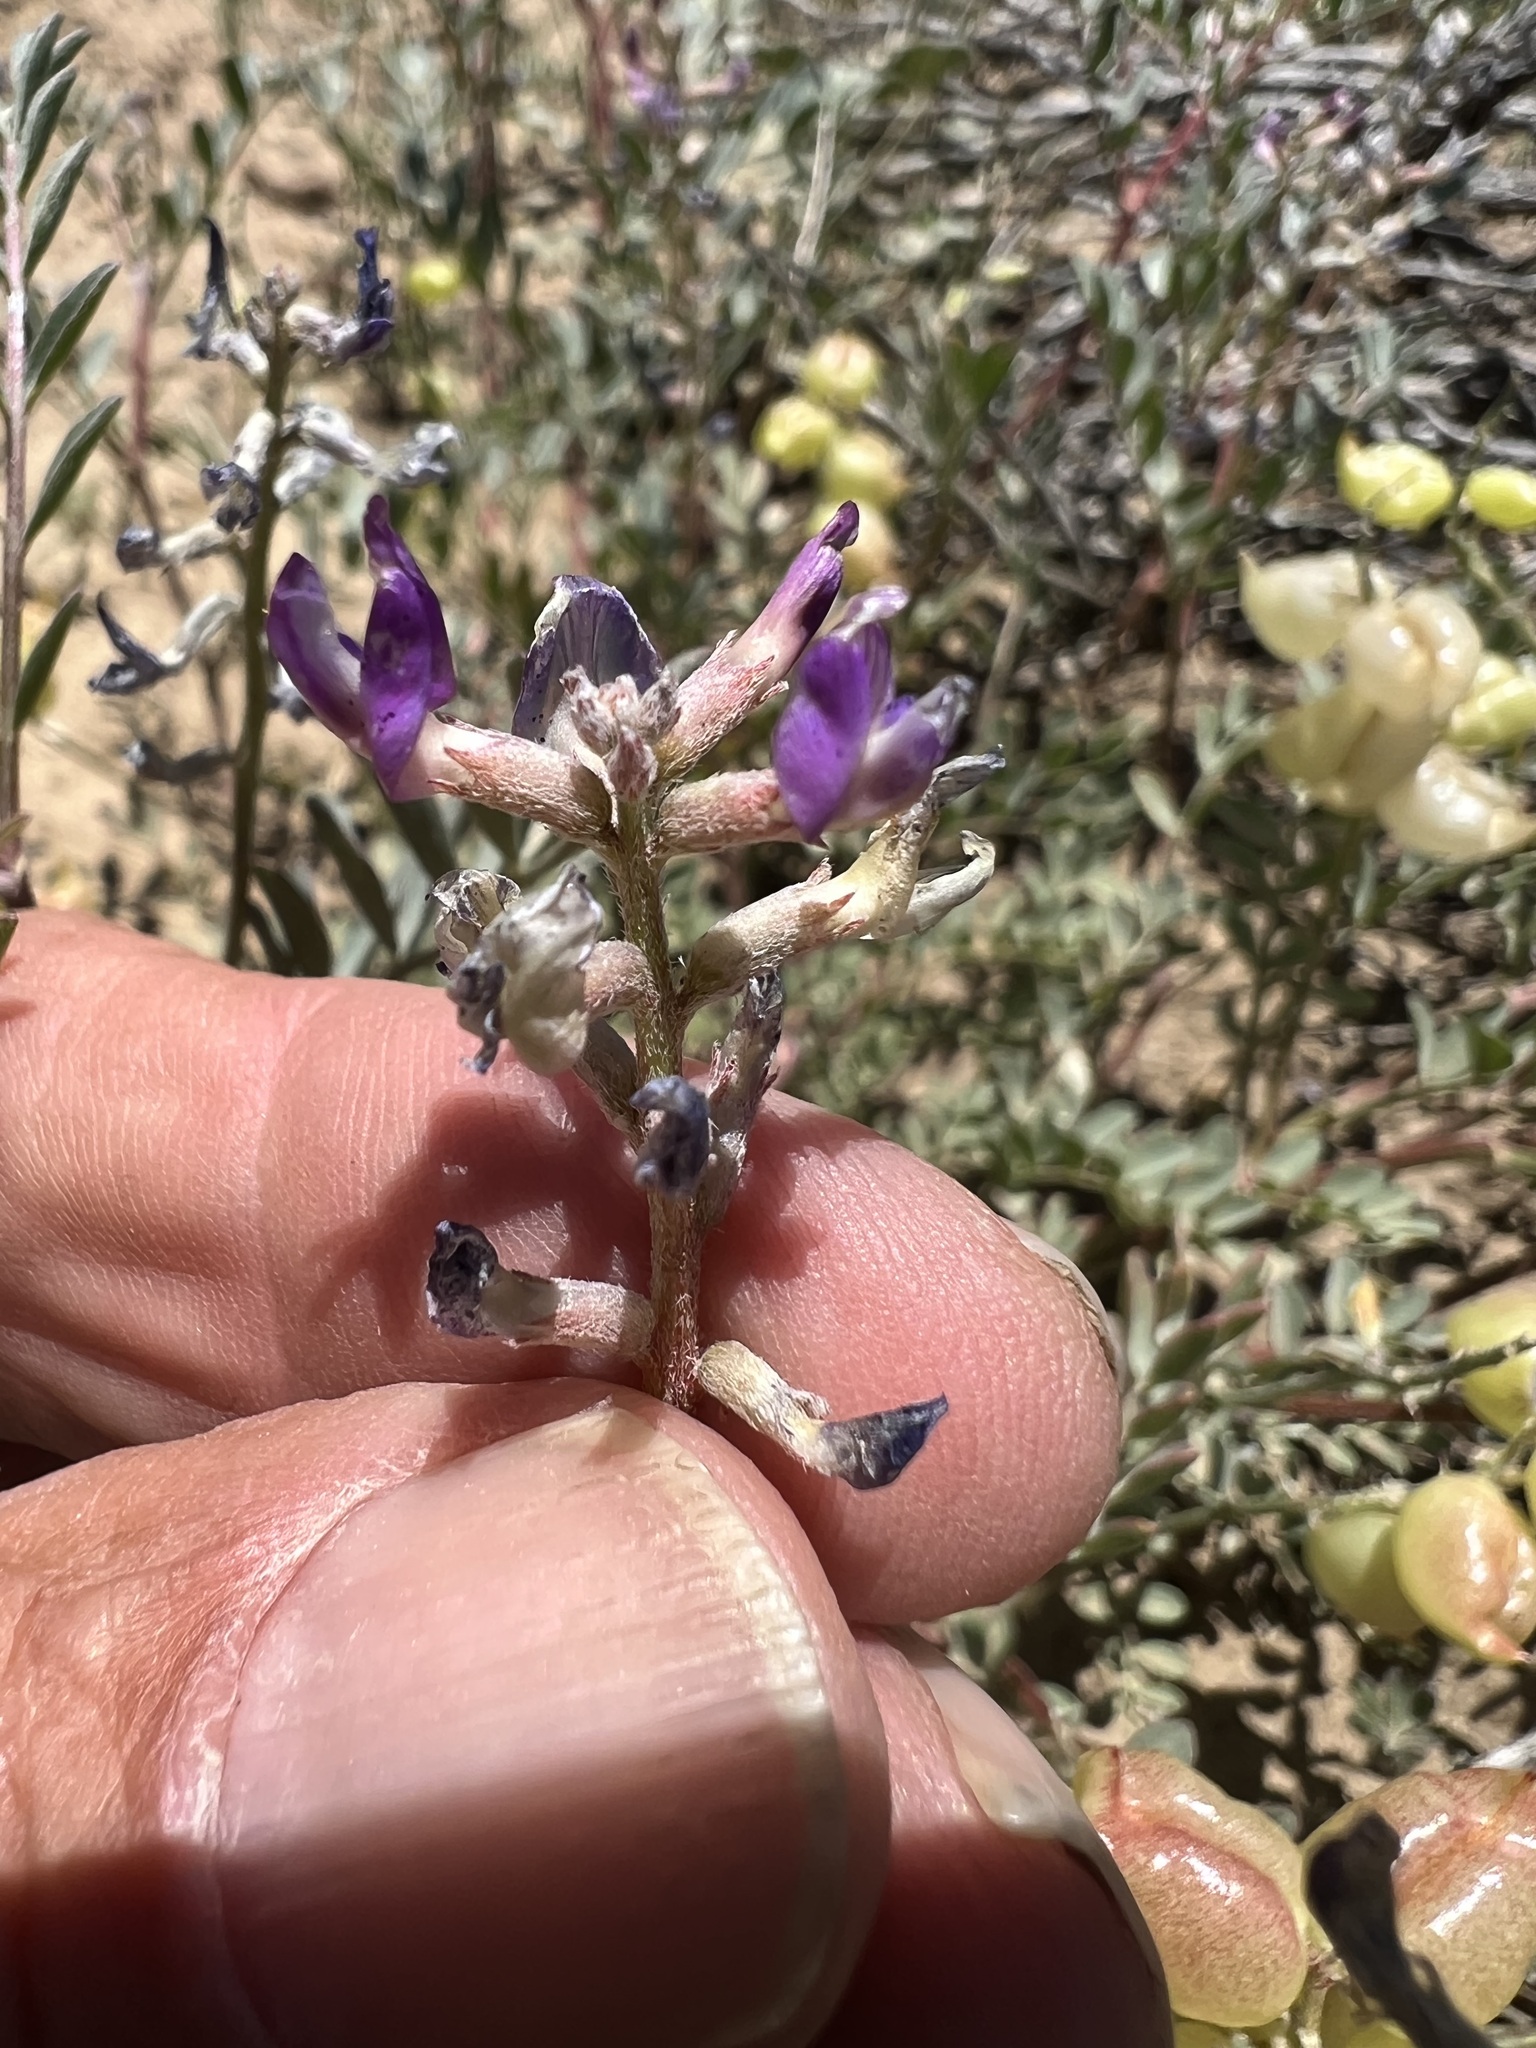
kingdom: Plantae
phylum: Tracheophyta
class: Magnoliopsida
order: Fabales
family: Fabaceae
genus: Astragalus
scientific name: Astragalus lentiginosus
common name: Freckled milkvetch
